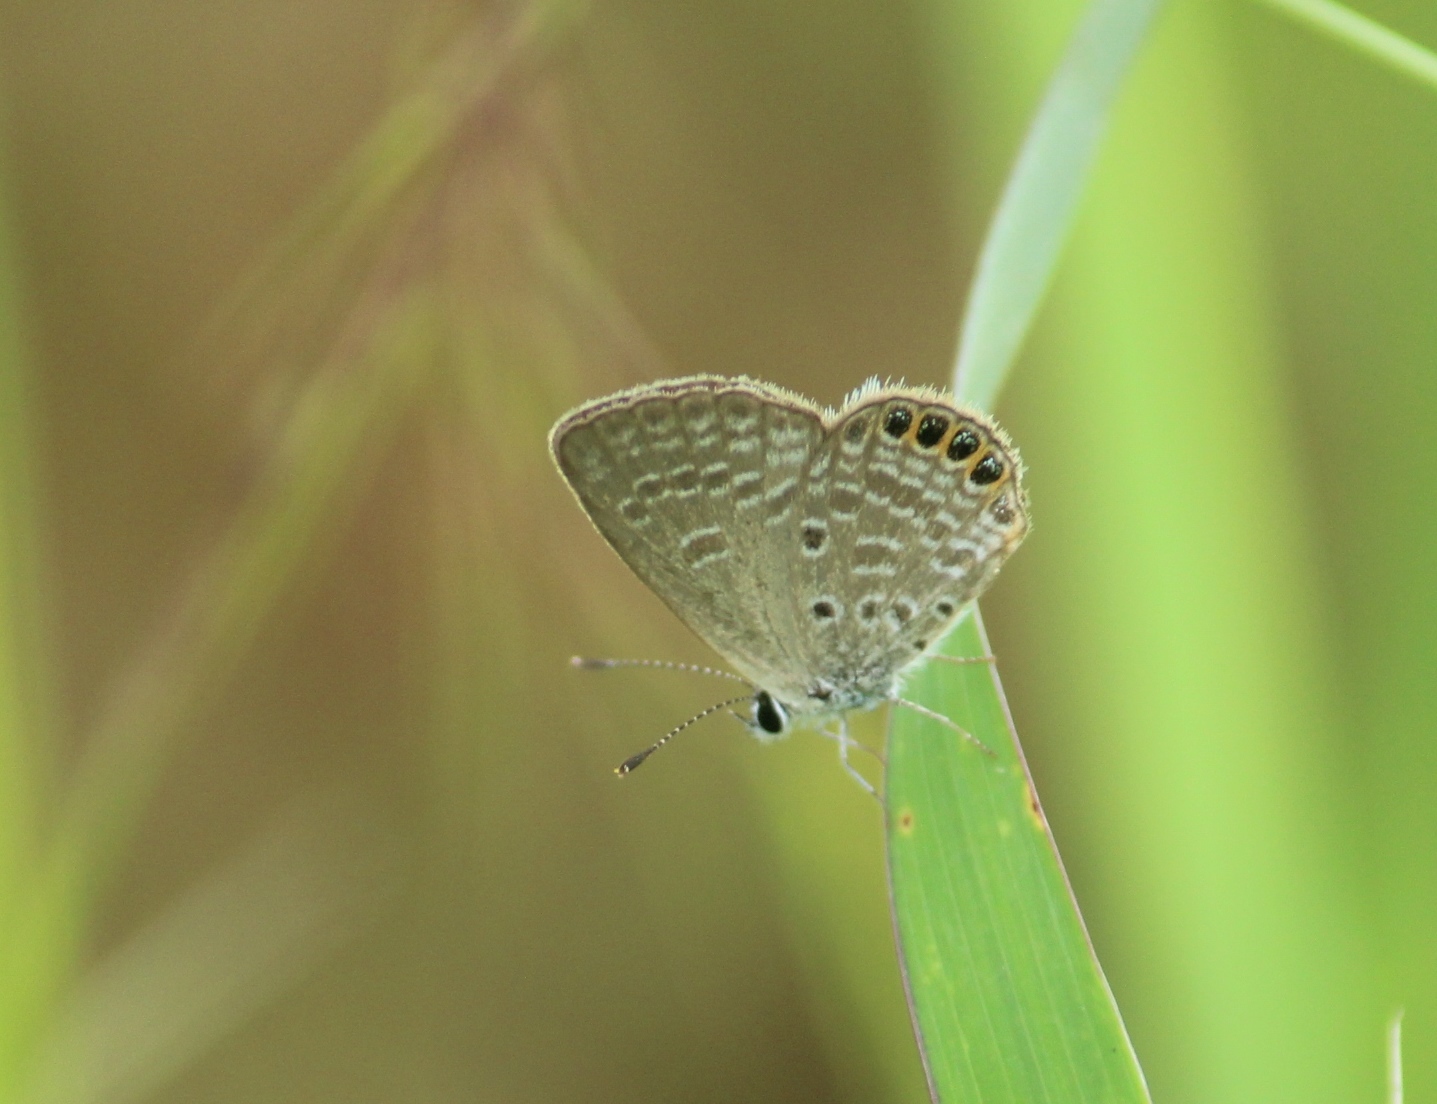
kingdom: Animalia
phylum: Arthropoda
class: Insecta
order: Lepidoptera
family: Lycaenidae
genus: Freyeria
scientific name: Freyeria putli
